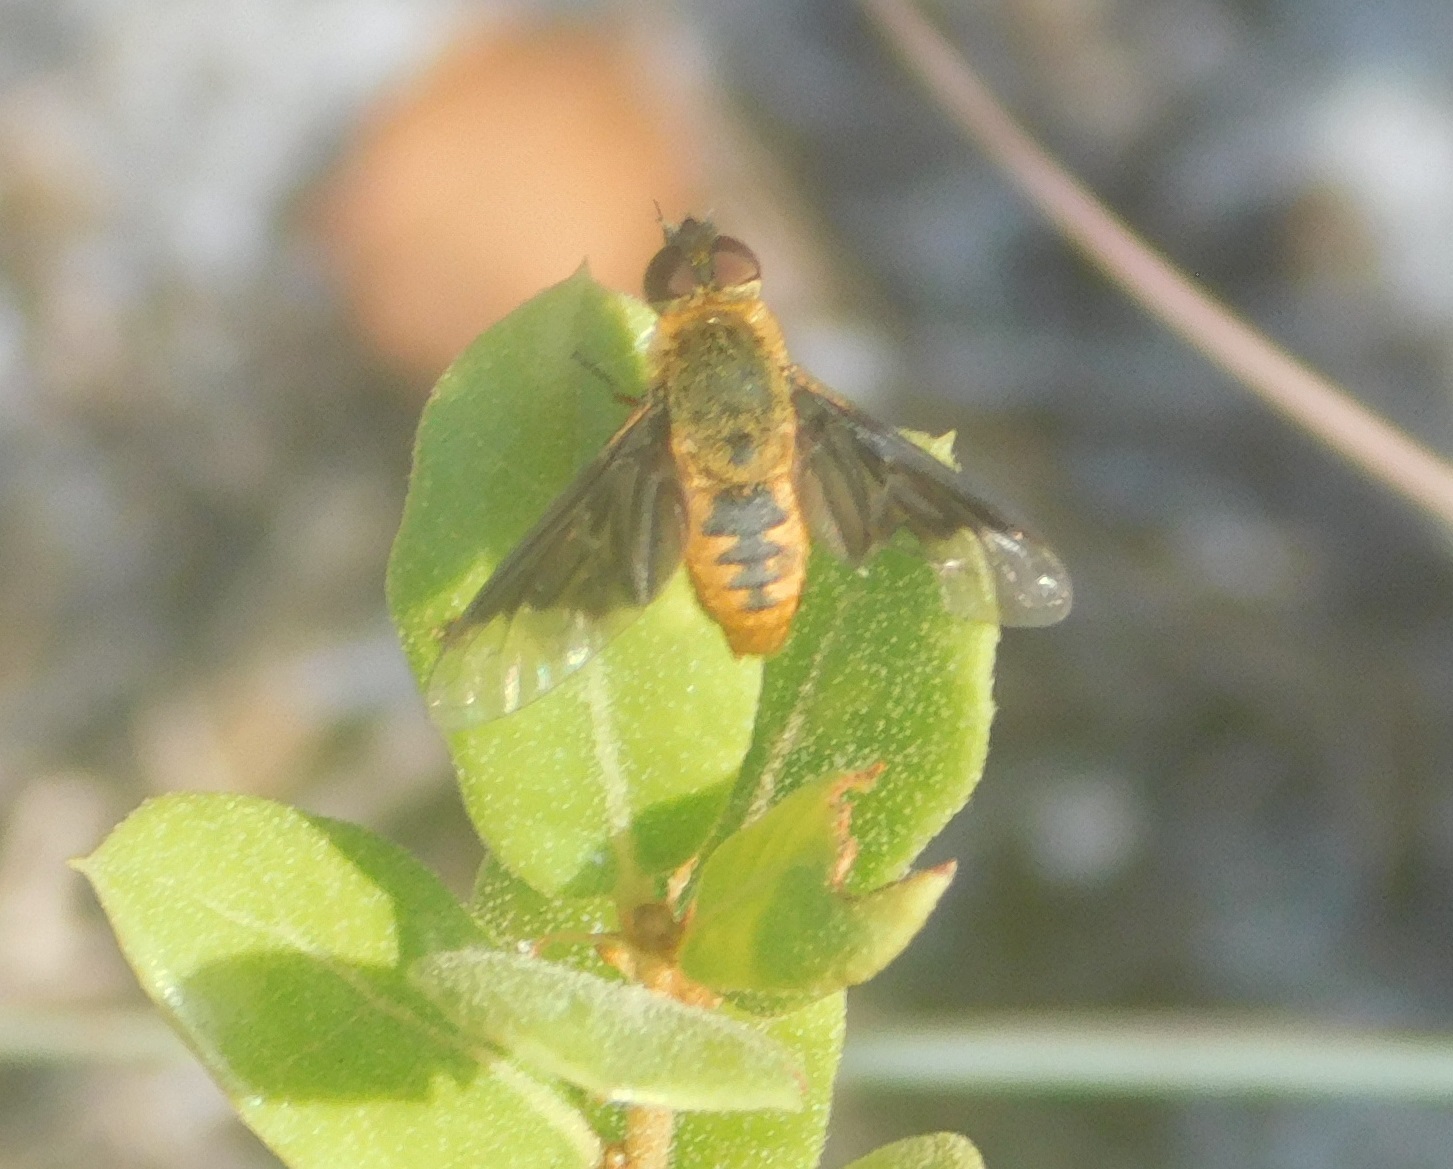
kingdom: Animalia
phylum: Arthropoda
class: Insecta
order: Diptera
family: Bombyliidae
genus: Chrysanthrax
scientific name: Chrysanthrax cypris
